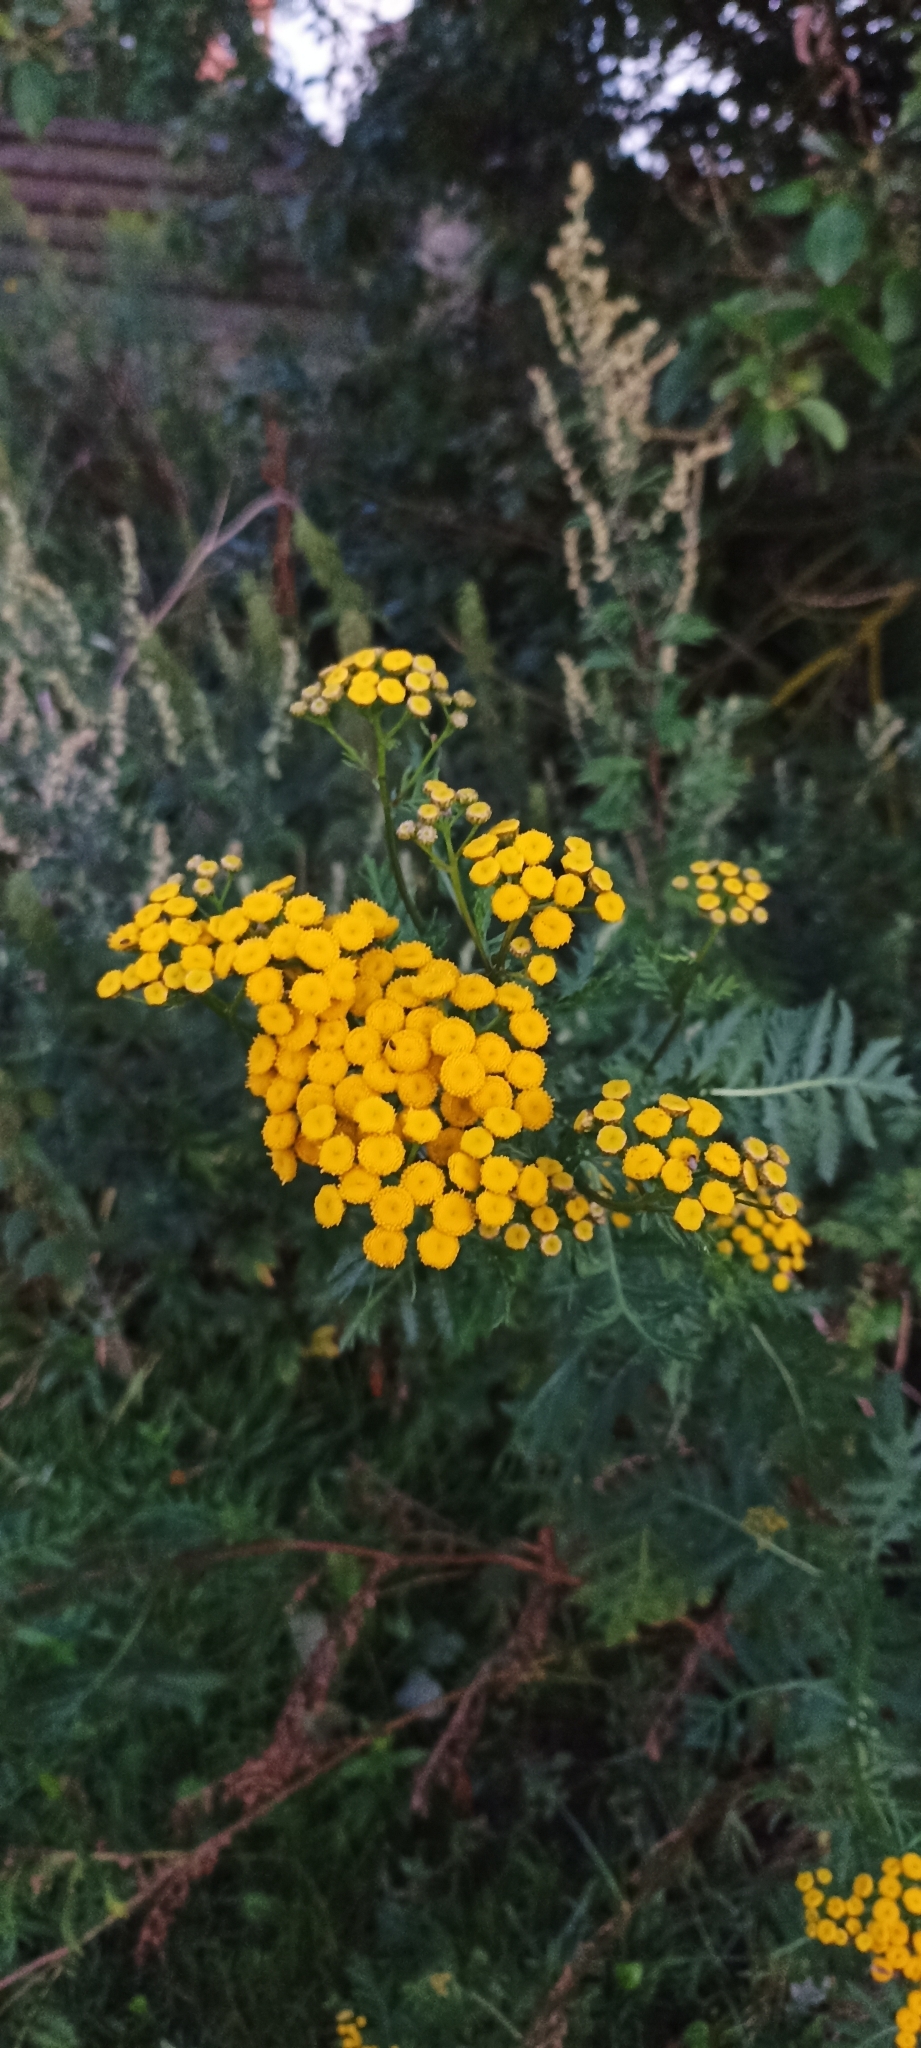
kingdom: Plantae
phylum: Tracheophyta
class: Magnoliopsida
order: Asterales
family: Asteraceae
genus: Tanacetum
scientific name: Tanacetum vulgare
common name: Common tansy
